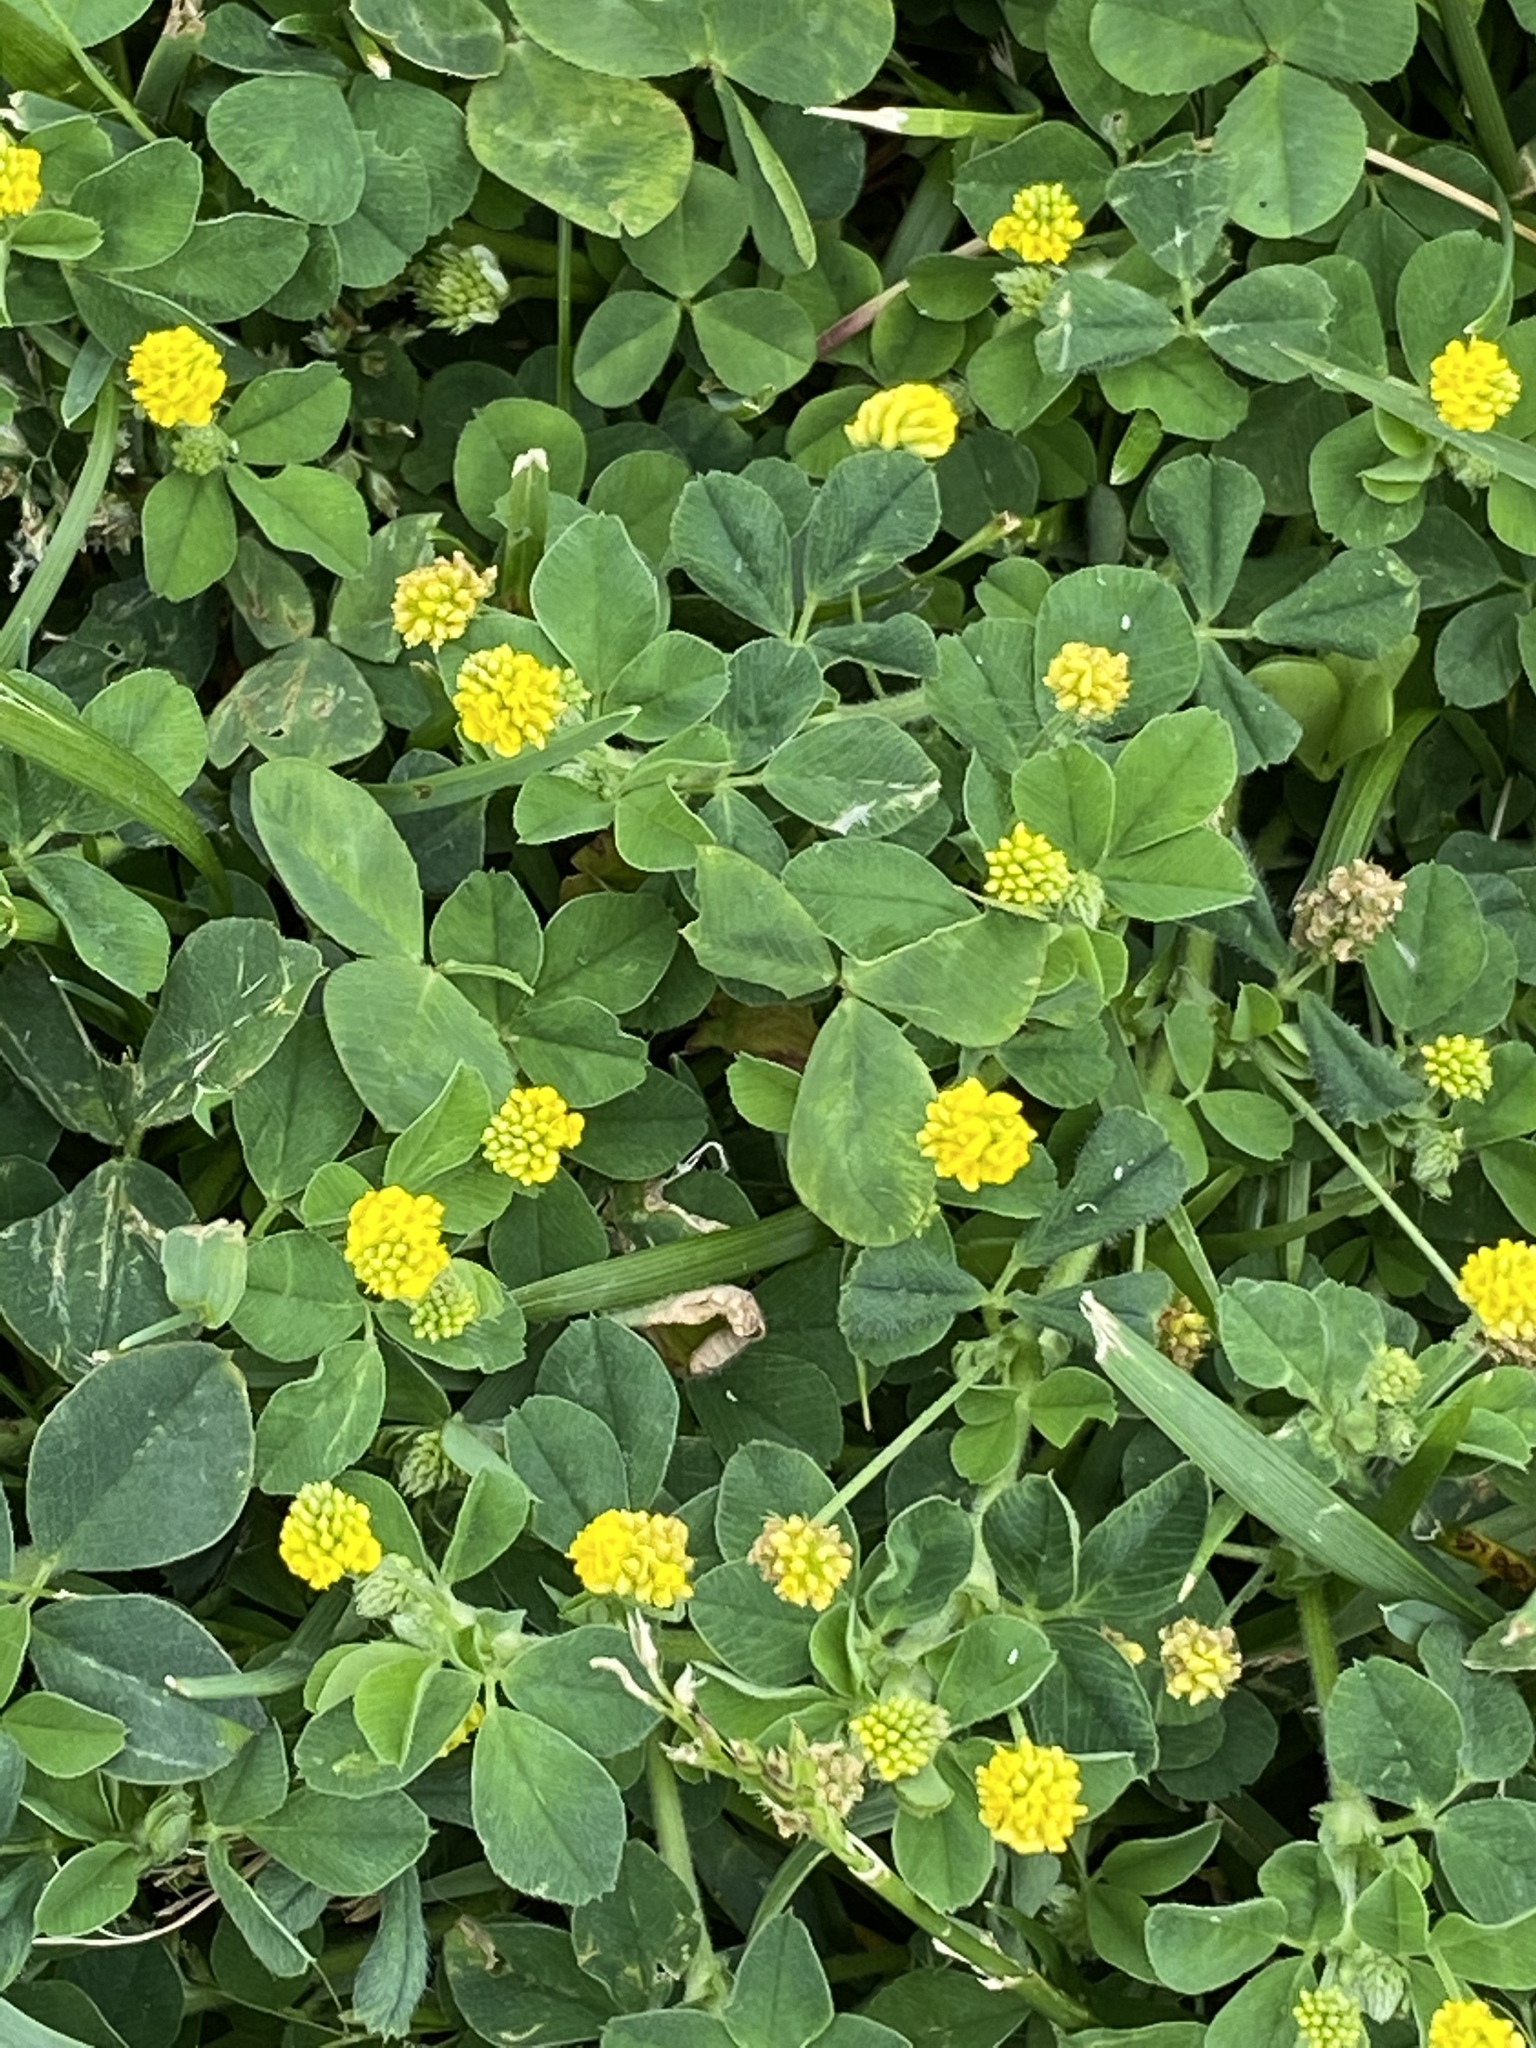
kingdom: Plantae
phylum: Tracheophyta
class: Magnoliopsida
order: Fabales
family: Fabaceae
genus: Medicago
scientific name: Medicago lupulina
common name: Black medick
